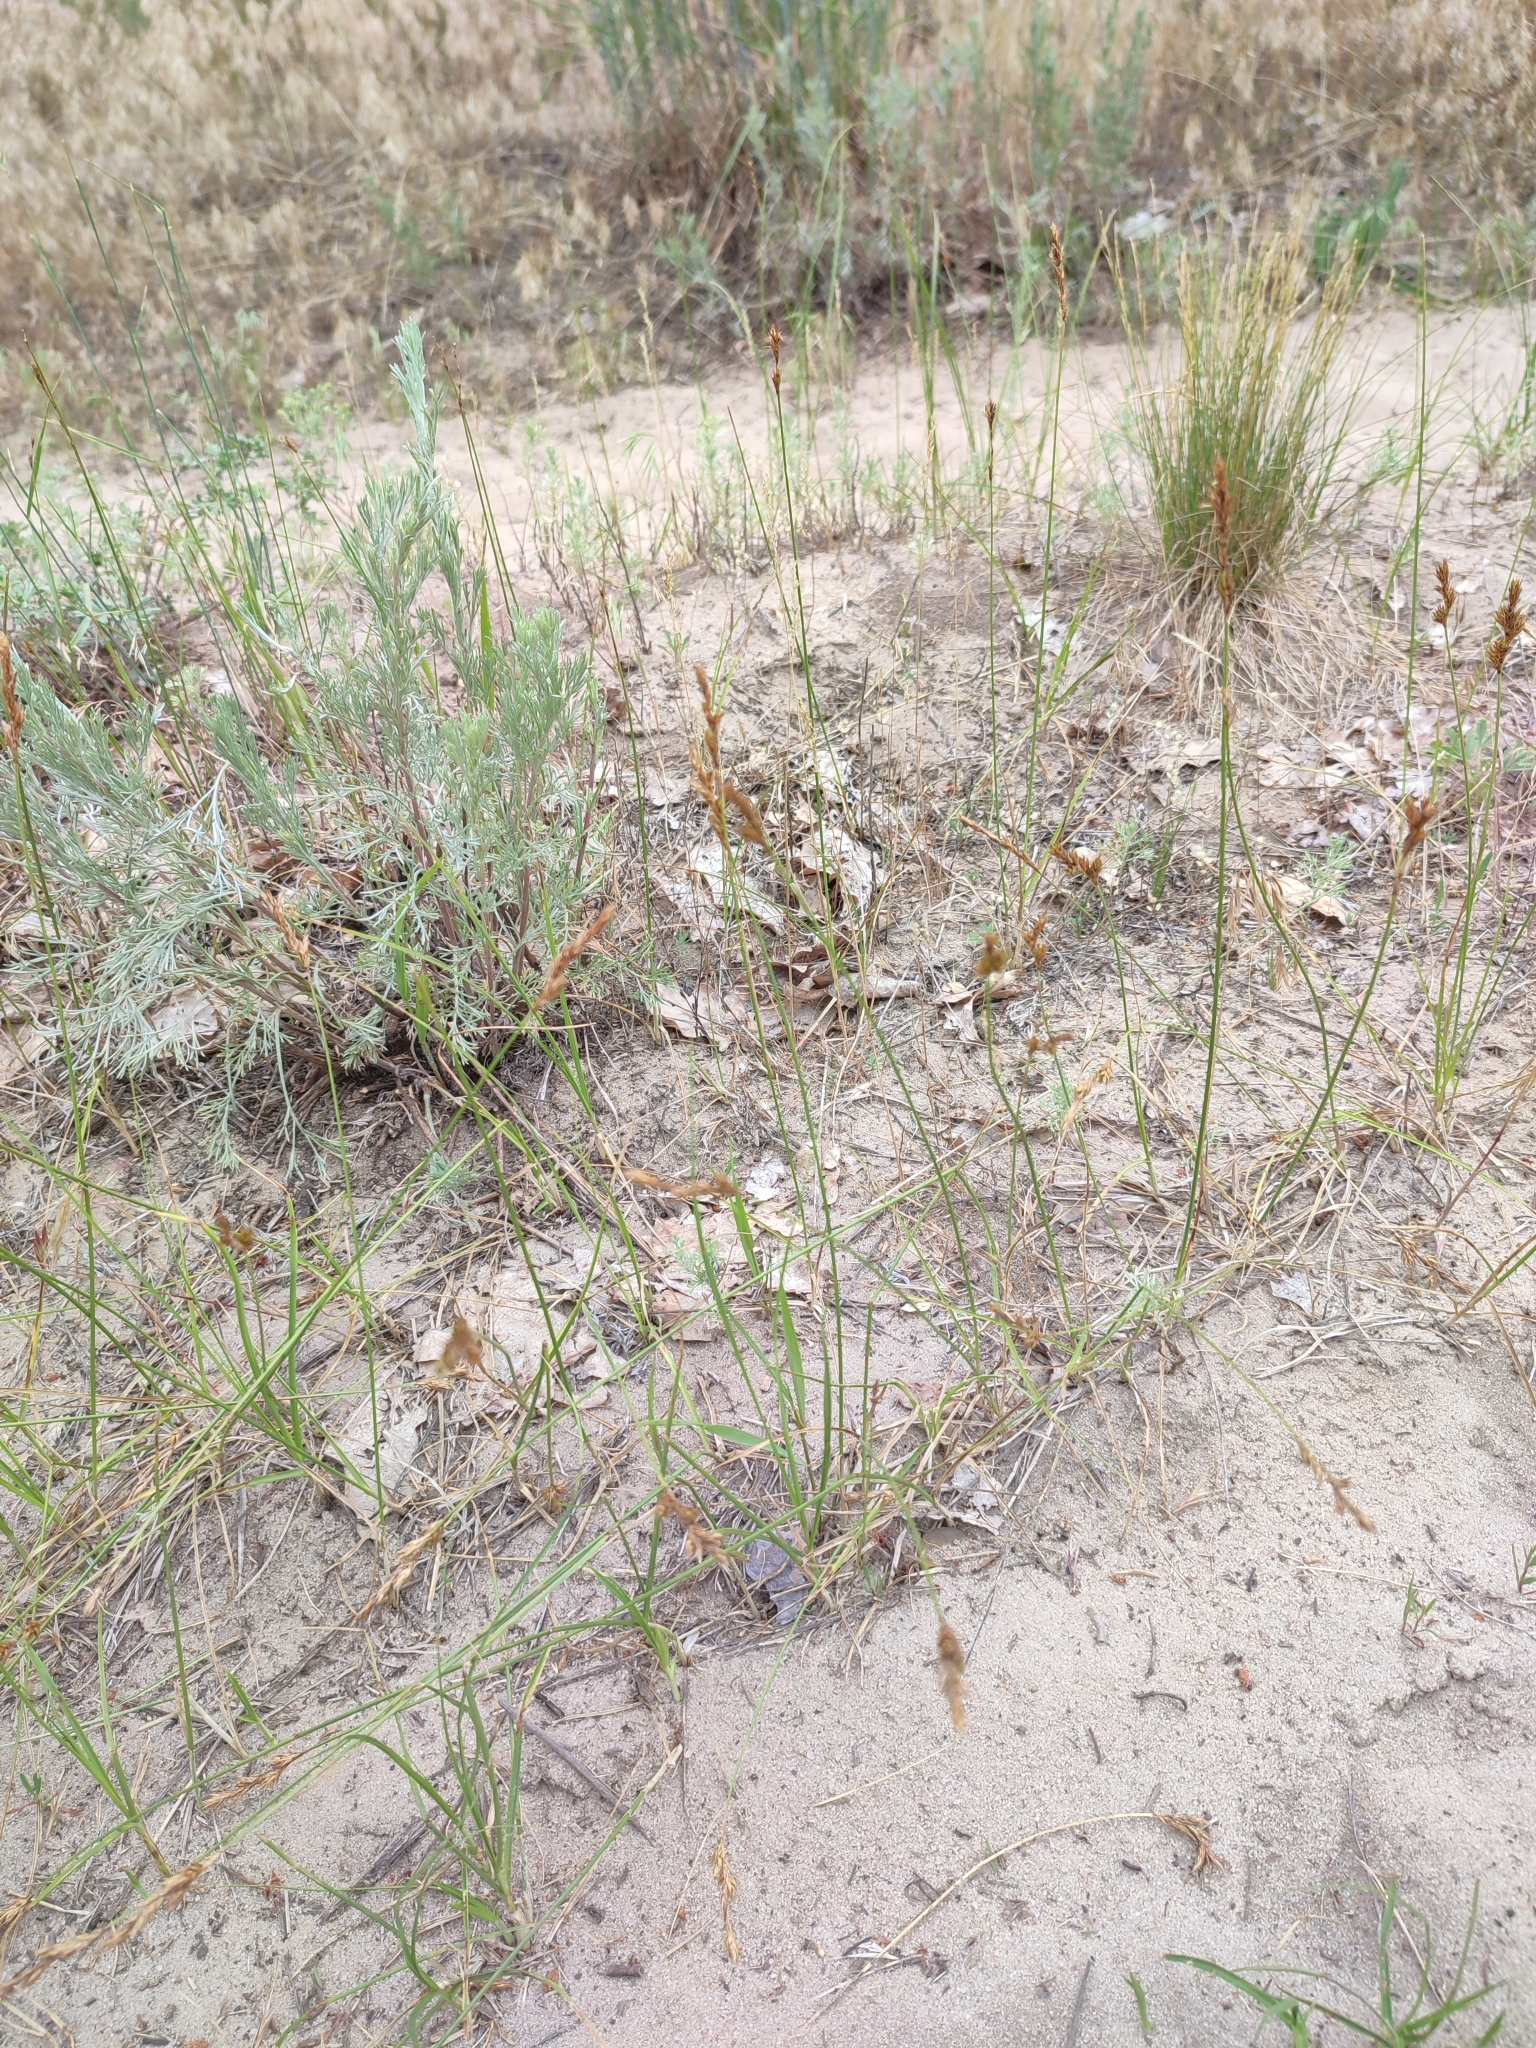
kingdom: Plantae
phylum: Tracheophyta
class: Liliopsida
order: Poales
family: Cyperaceae
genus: Carex
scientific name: Carex colchica
